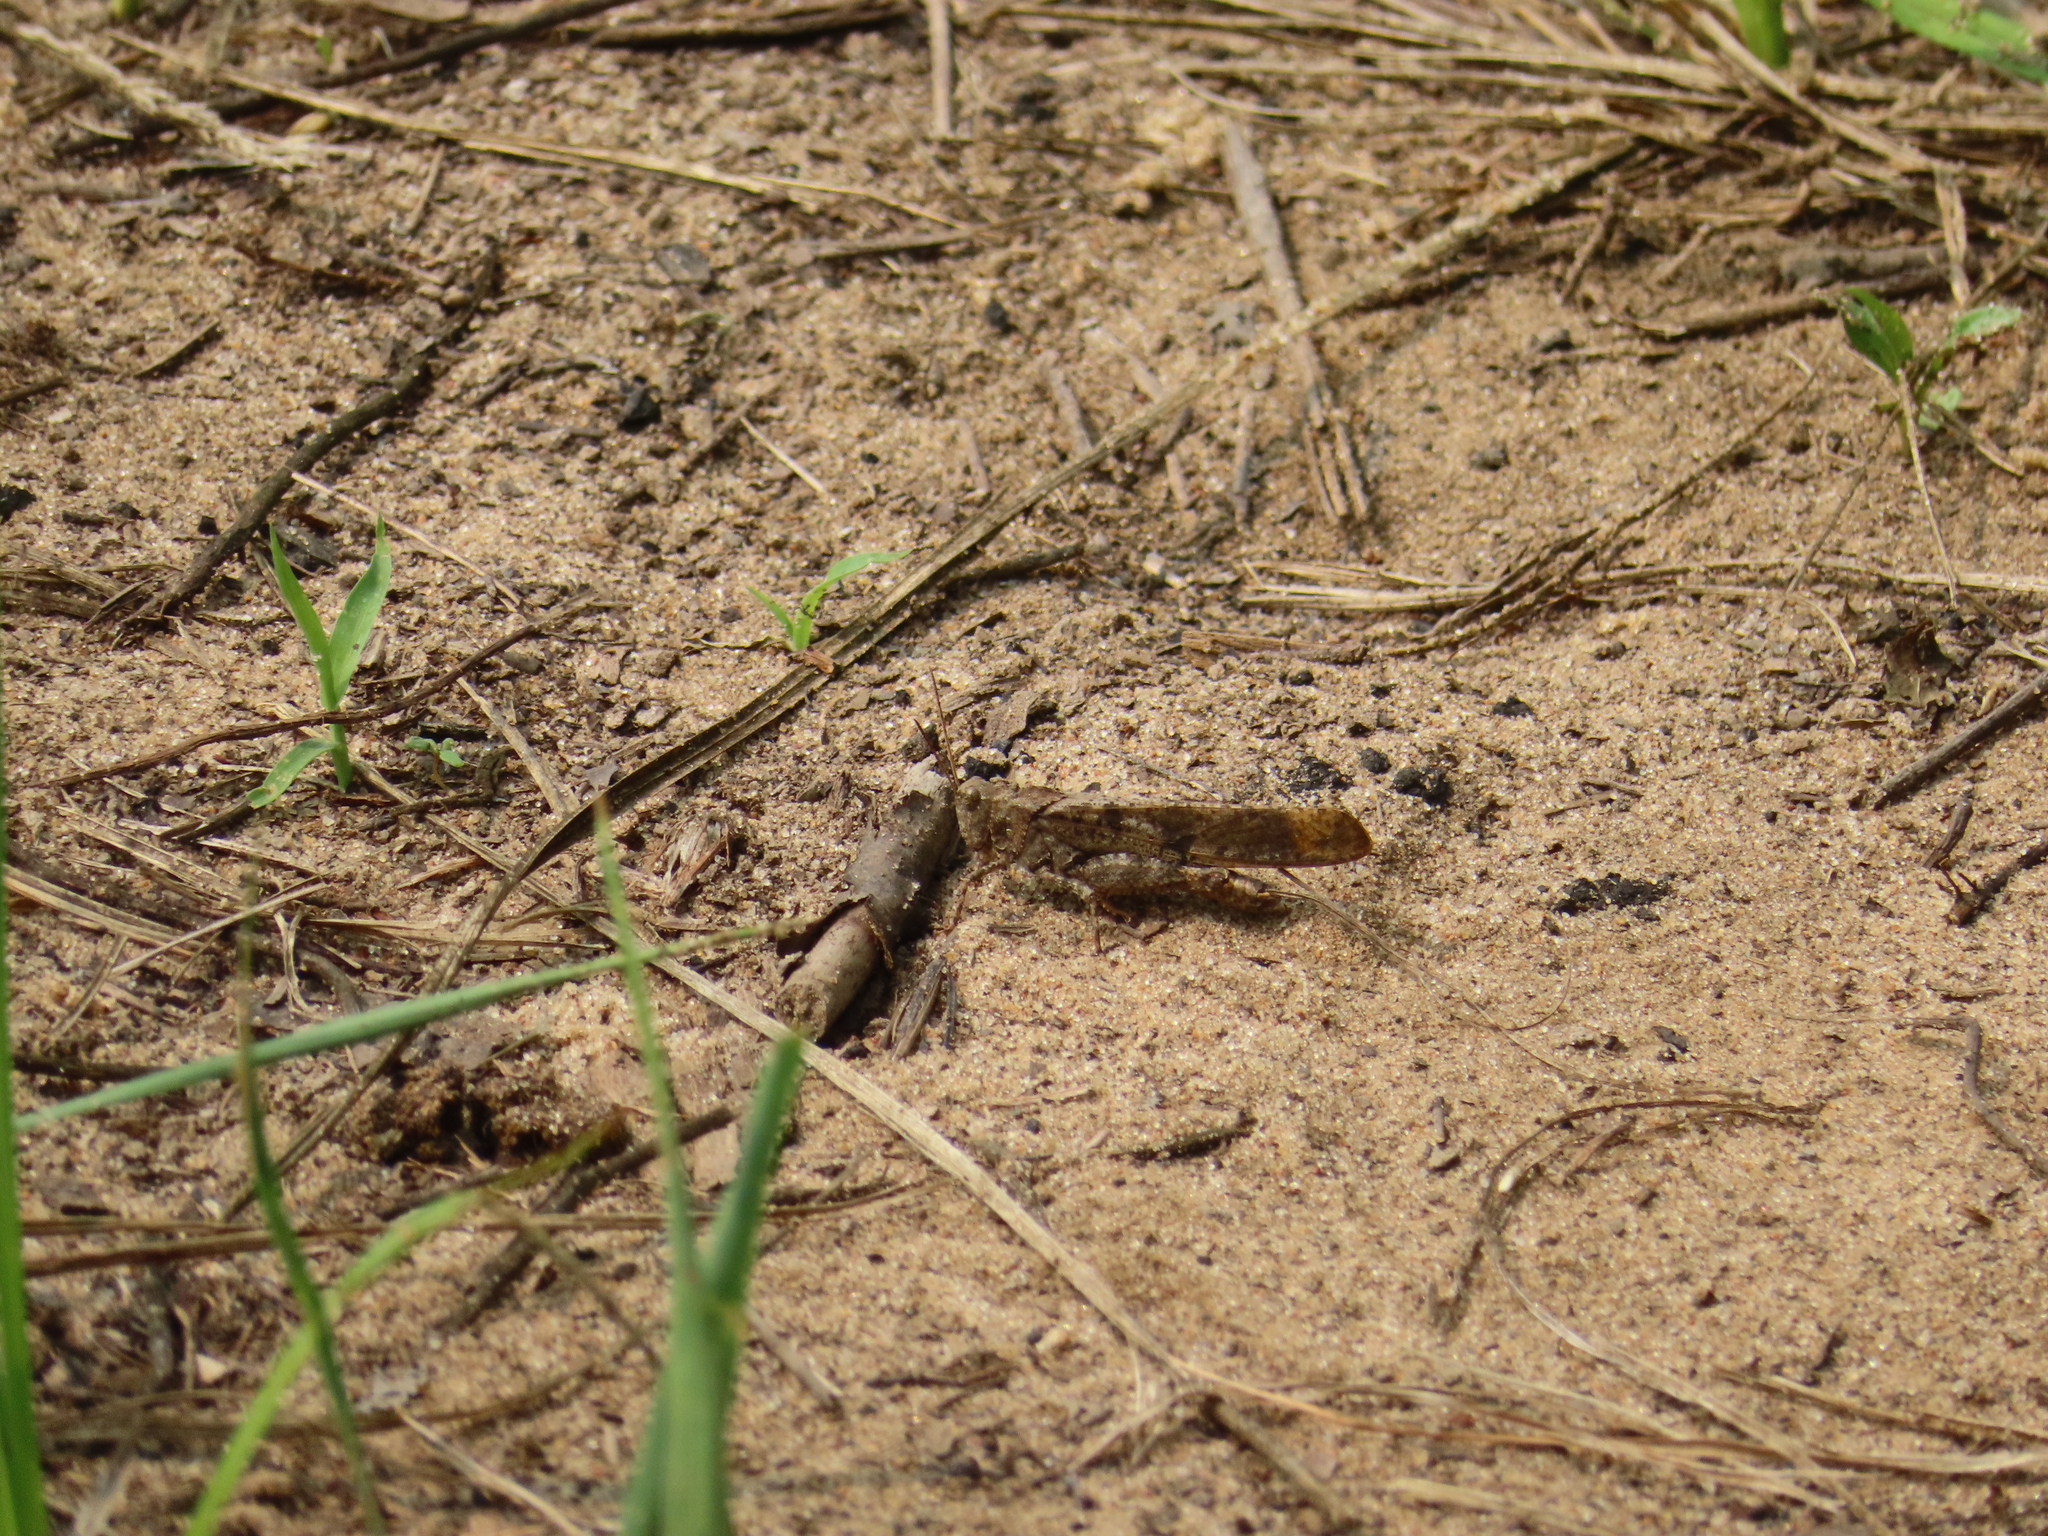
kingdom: Animalia
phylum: Arthropoda
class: Insecta
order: Orthoptera
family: Acrididae
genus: Dissosteira
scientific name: Dissosteira carolina
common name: Carolina grasshopper
